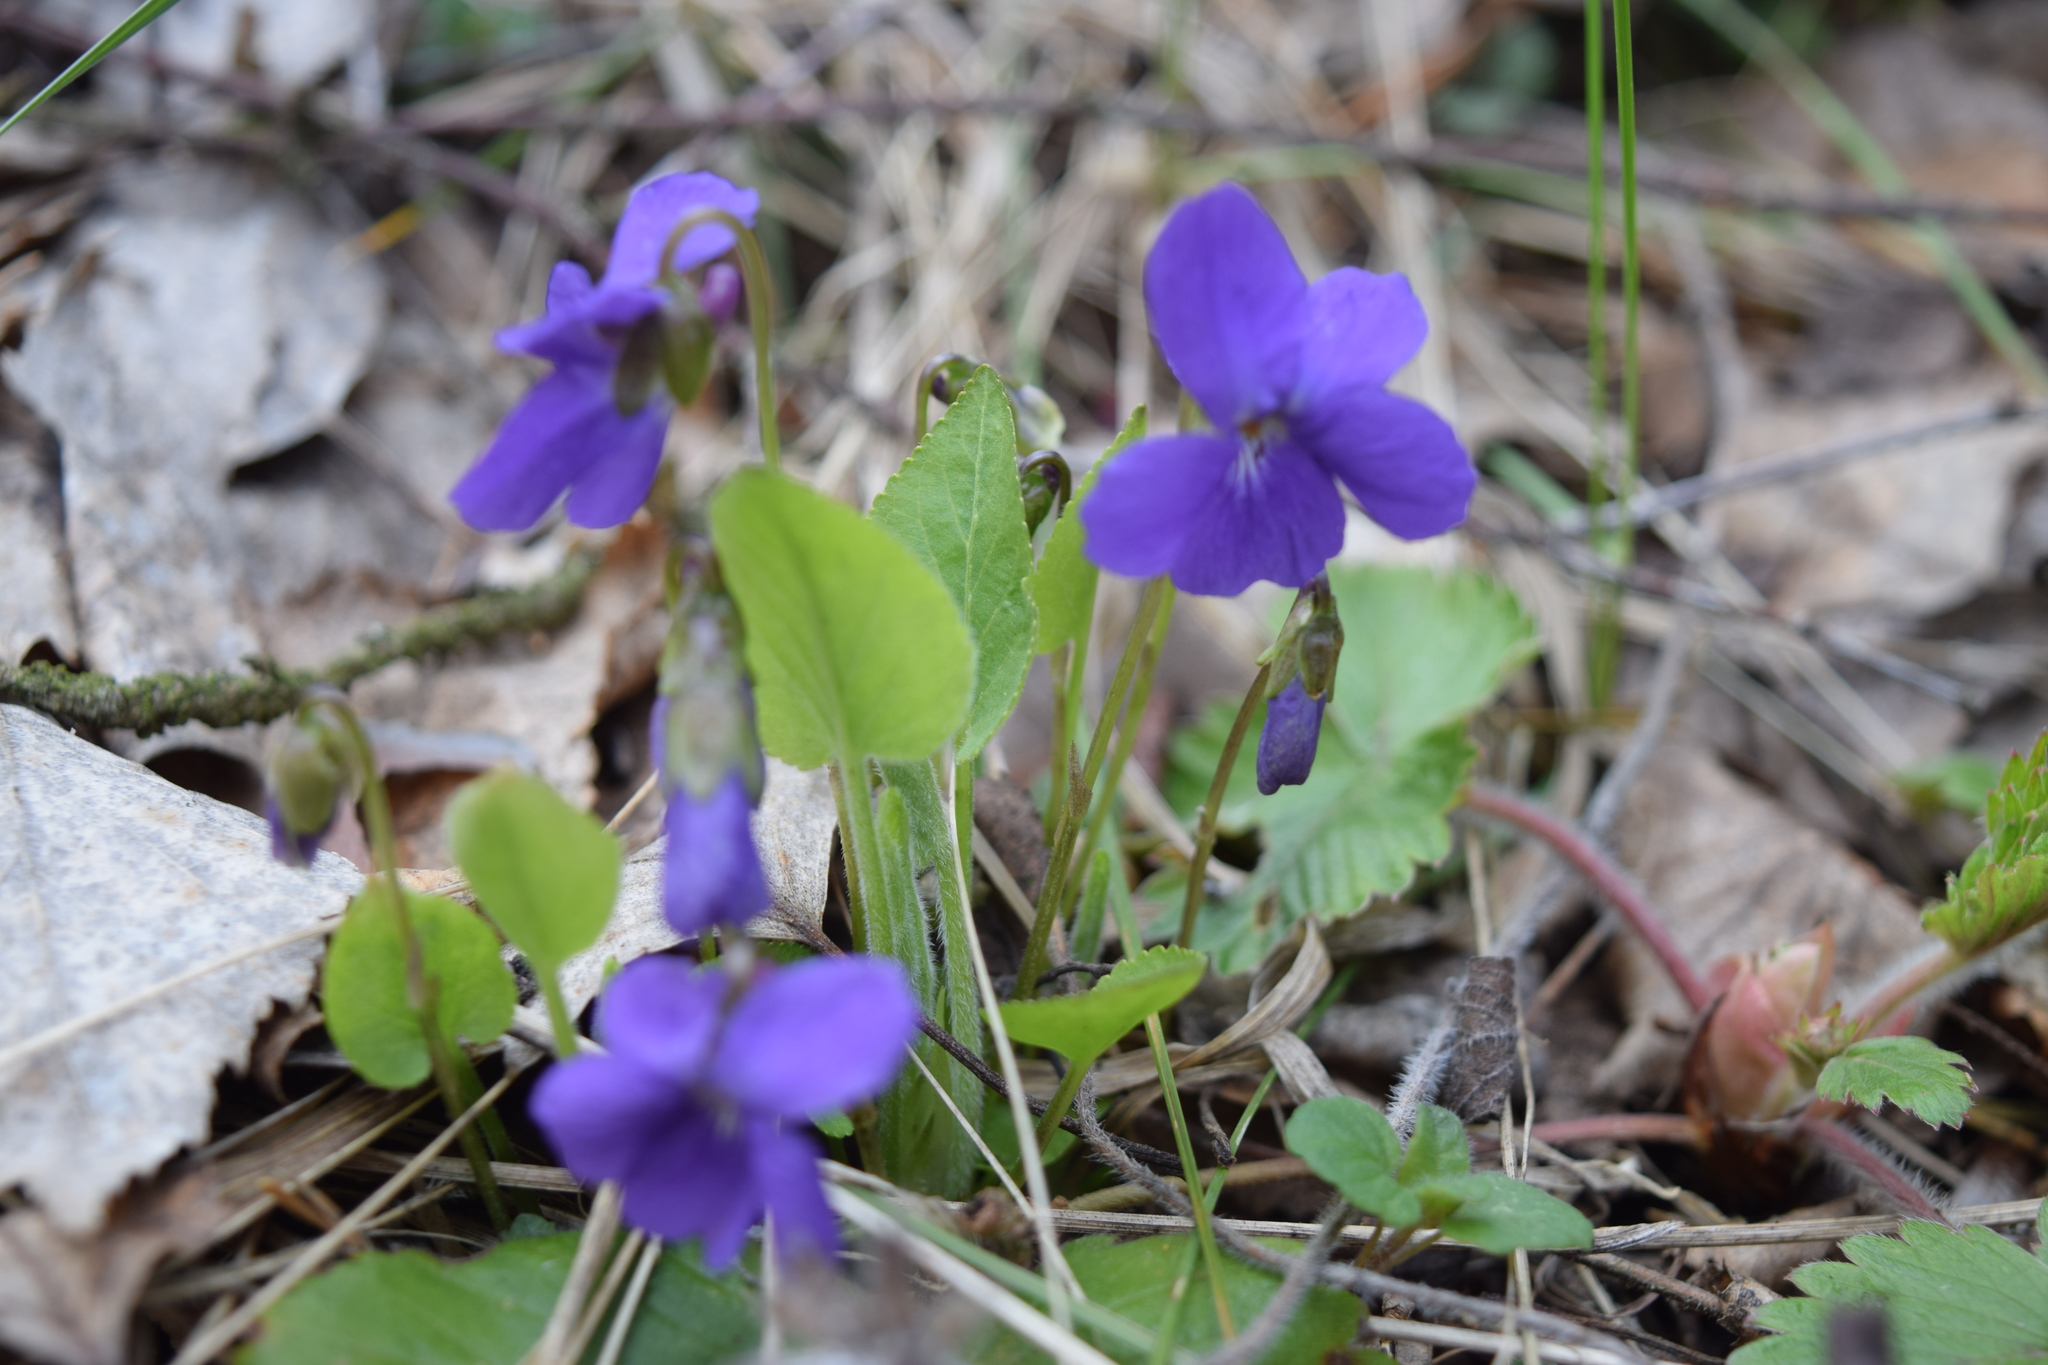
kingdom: Plantae
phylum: Tracheophyta
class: Magnoliopsida
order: Malpighiales
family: Violaceae
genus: Viola
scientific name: Viola hirta
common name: Hairy violet
